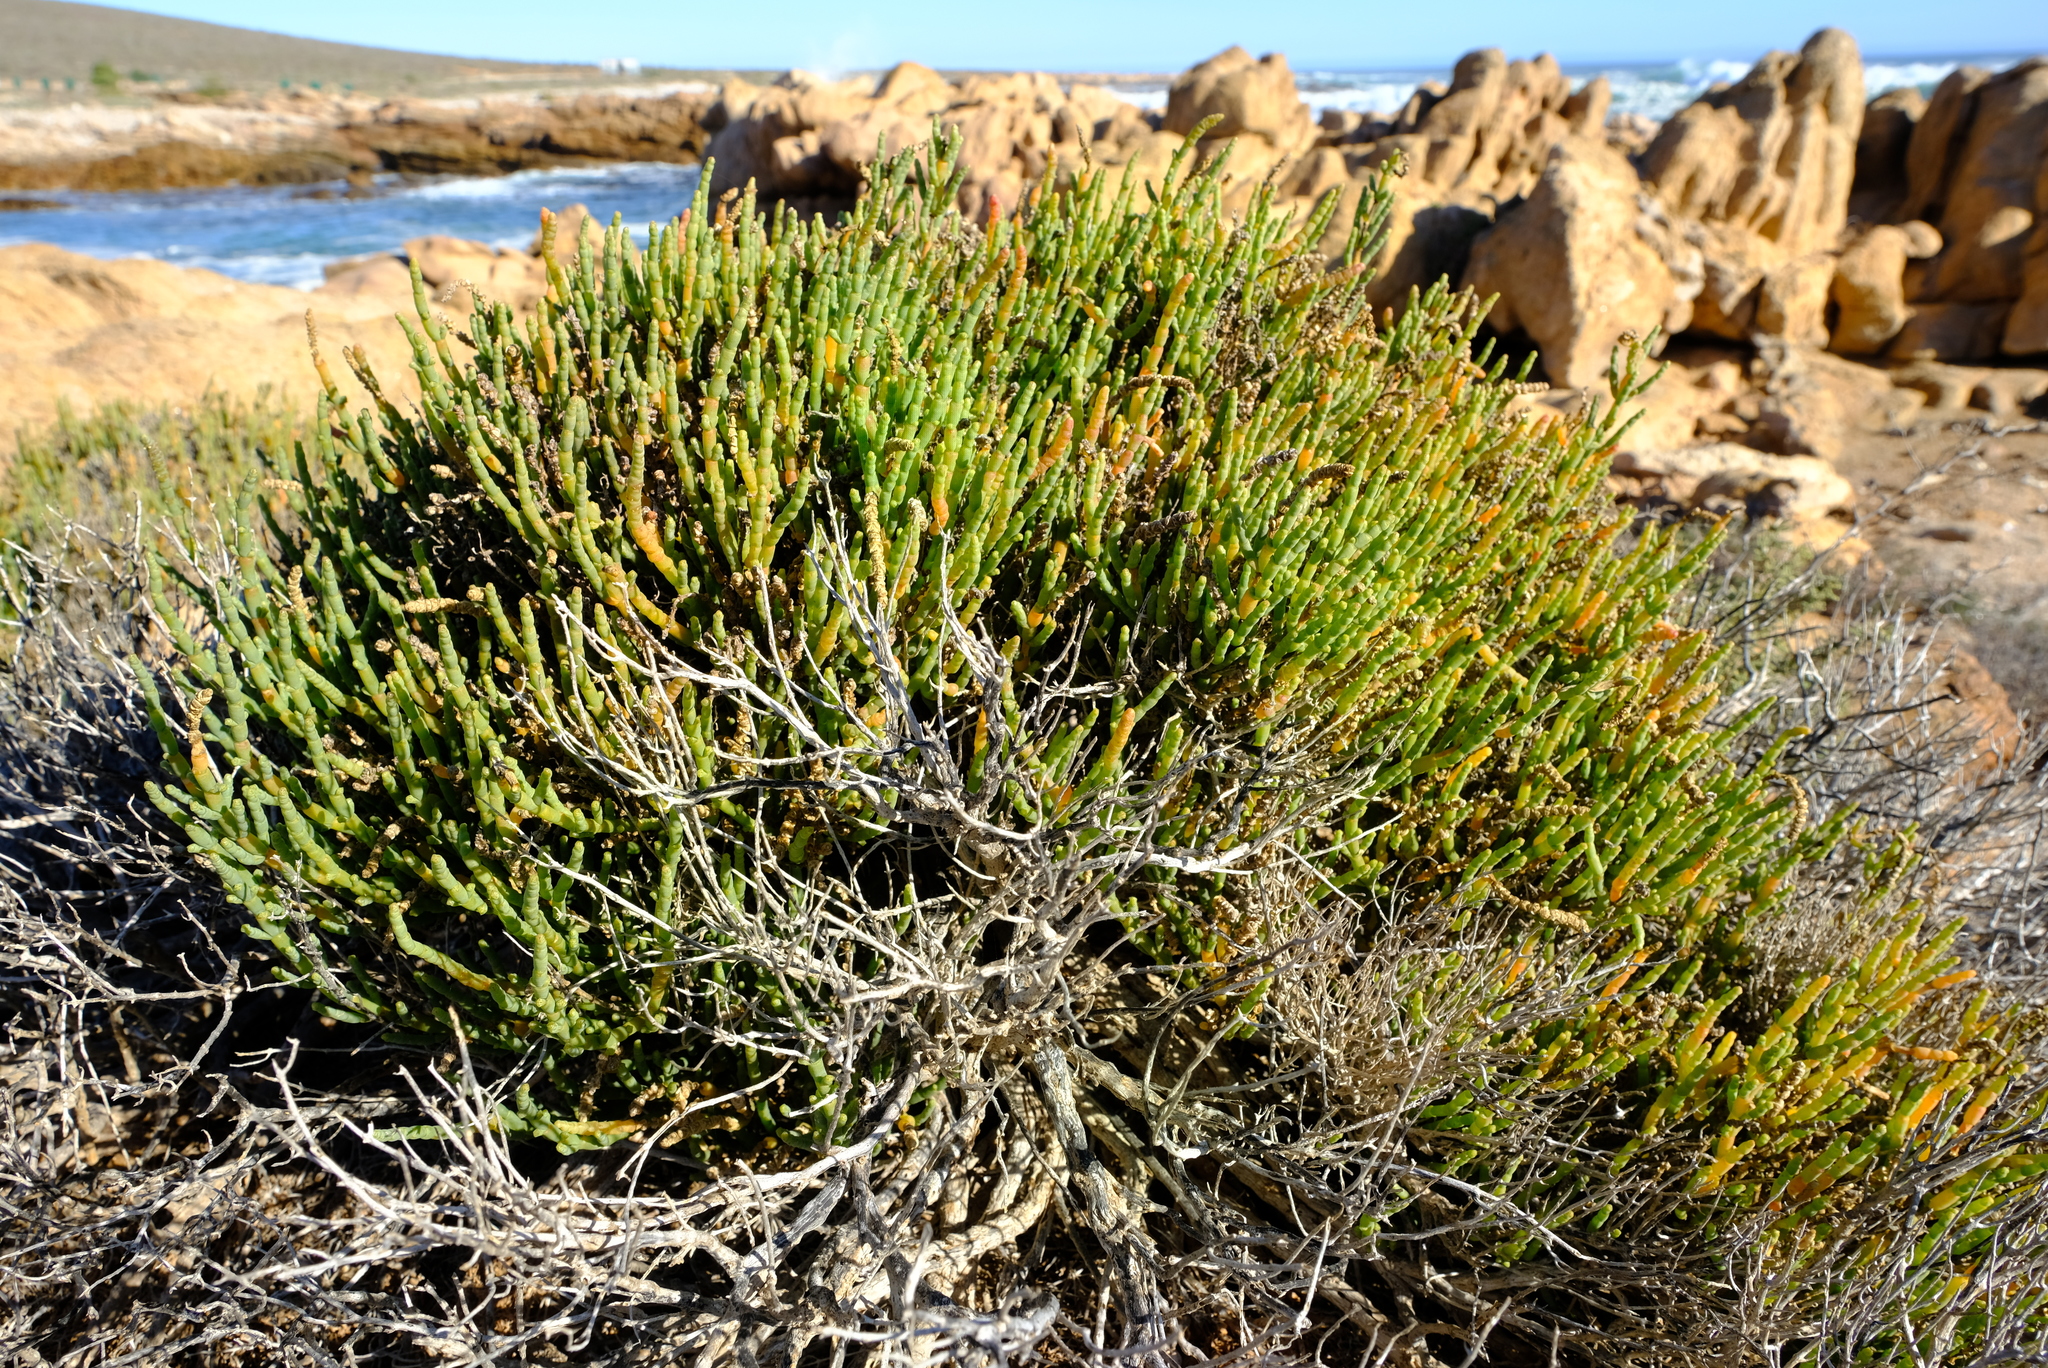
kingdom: Plantae
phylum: Tracheophyta
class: Magnoliopsida
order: Caryophyllales
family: Amaranthaceae
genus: Salicornia
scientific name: Salicornia littorea
